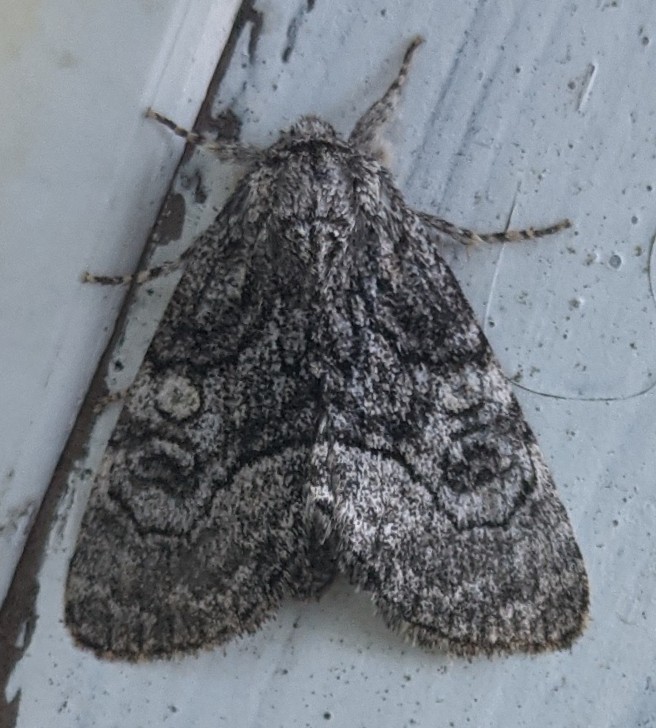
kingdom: Animalia
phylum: Arthropoda
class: Insecta
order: Lepidoptera
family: Noctuidae
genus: Raphia
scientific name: Raphia frater
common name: Brother
